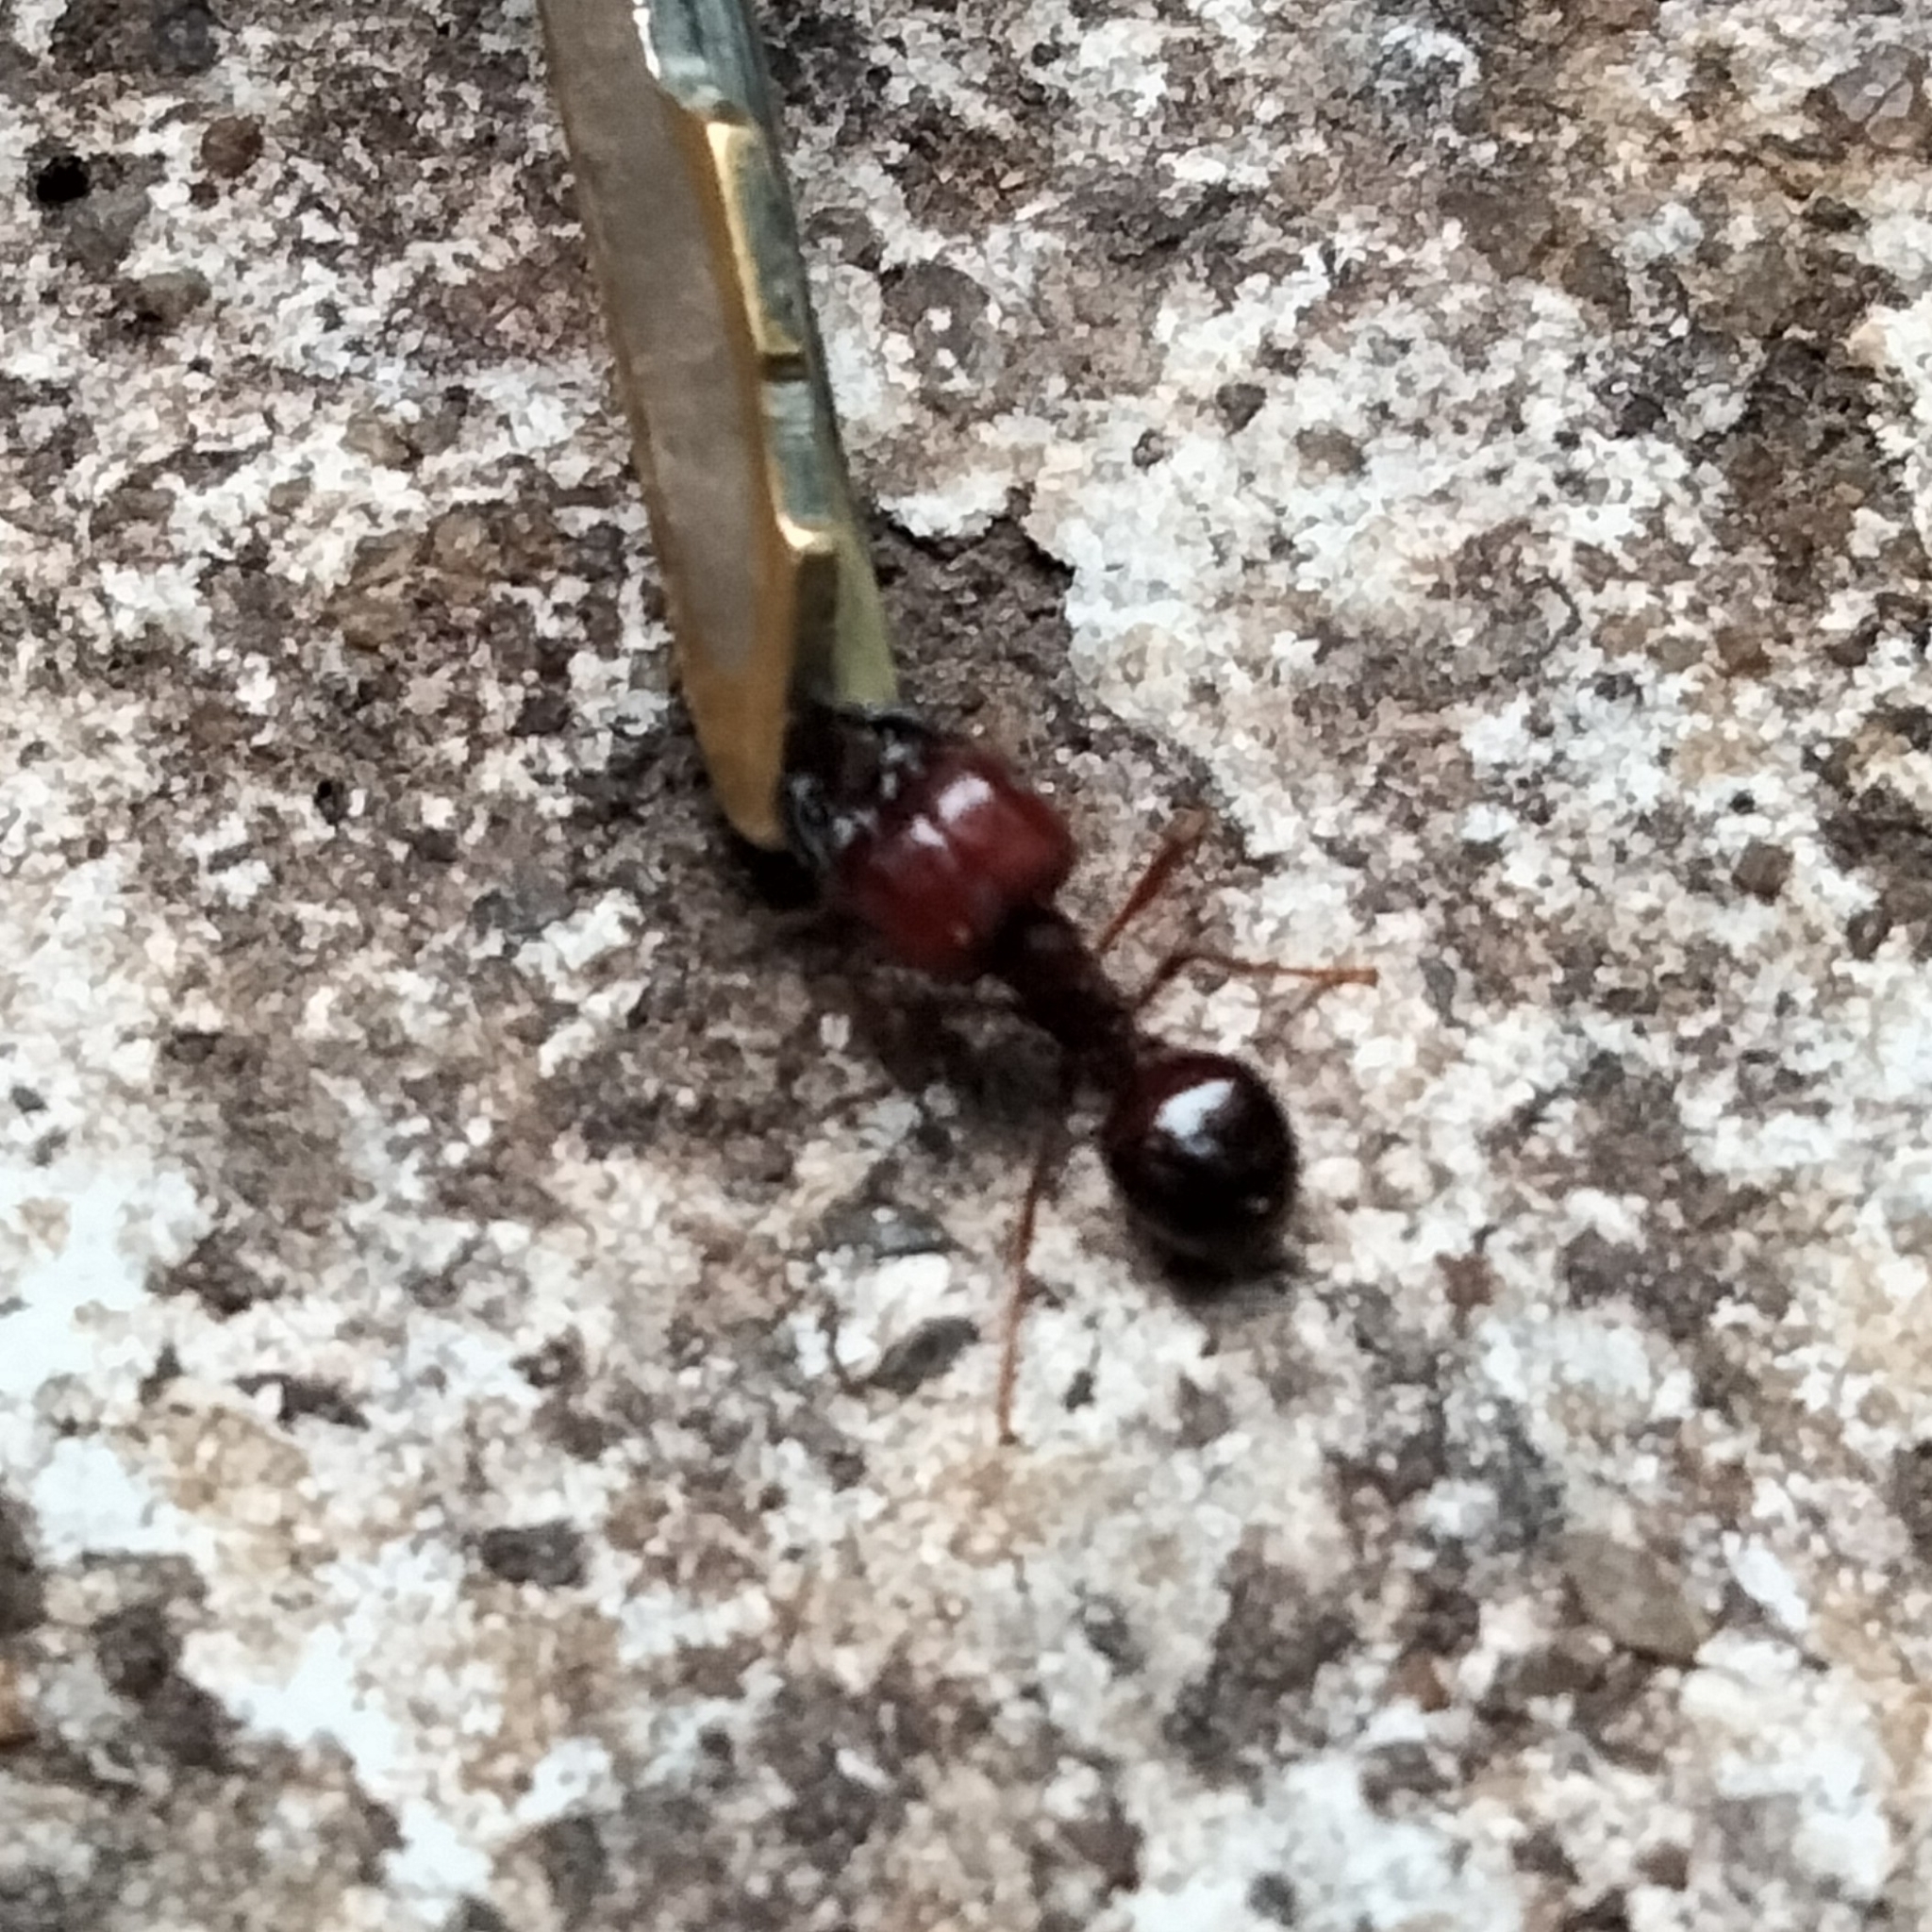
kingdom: Animalia
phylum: Arthropoda
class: Insecta
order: Hymenoptera
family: Formicidae
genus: Pheidologeton
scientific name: Pheidologeton diversus
